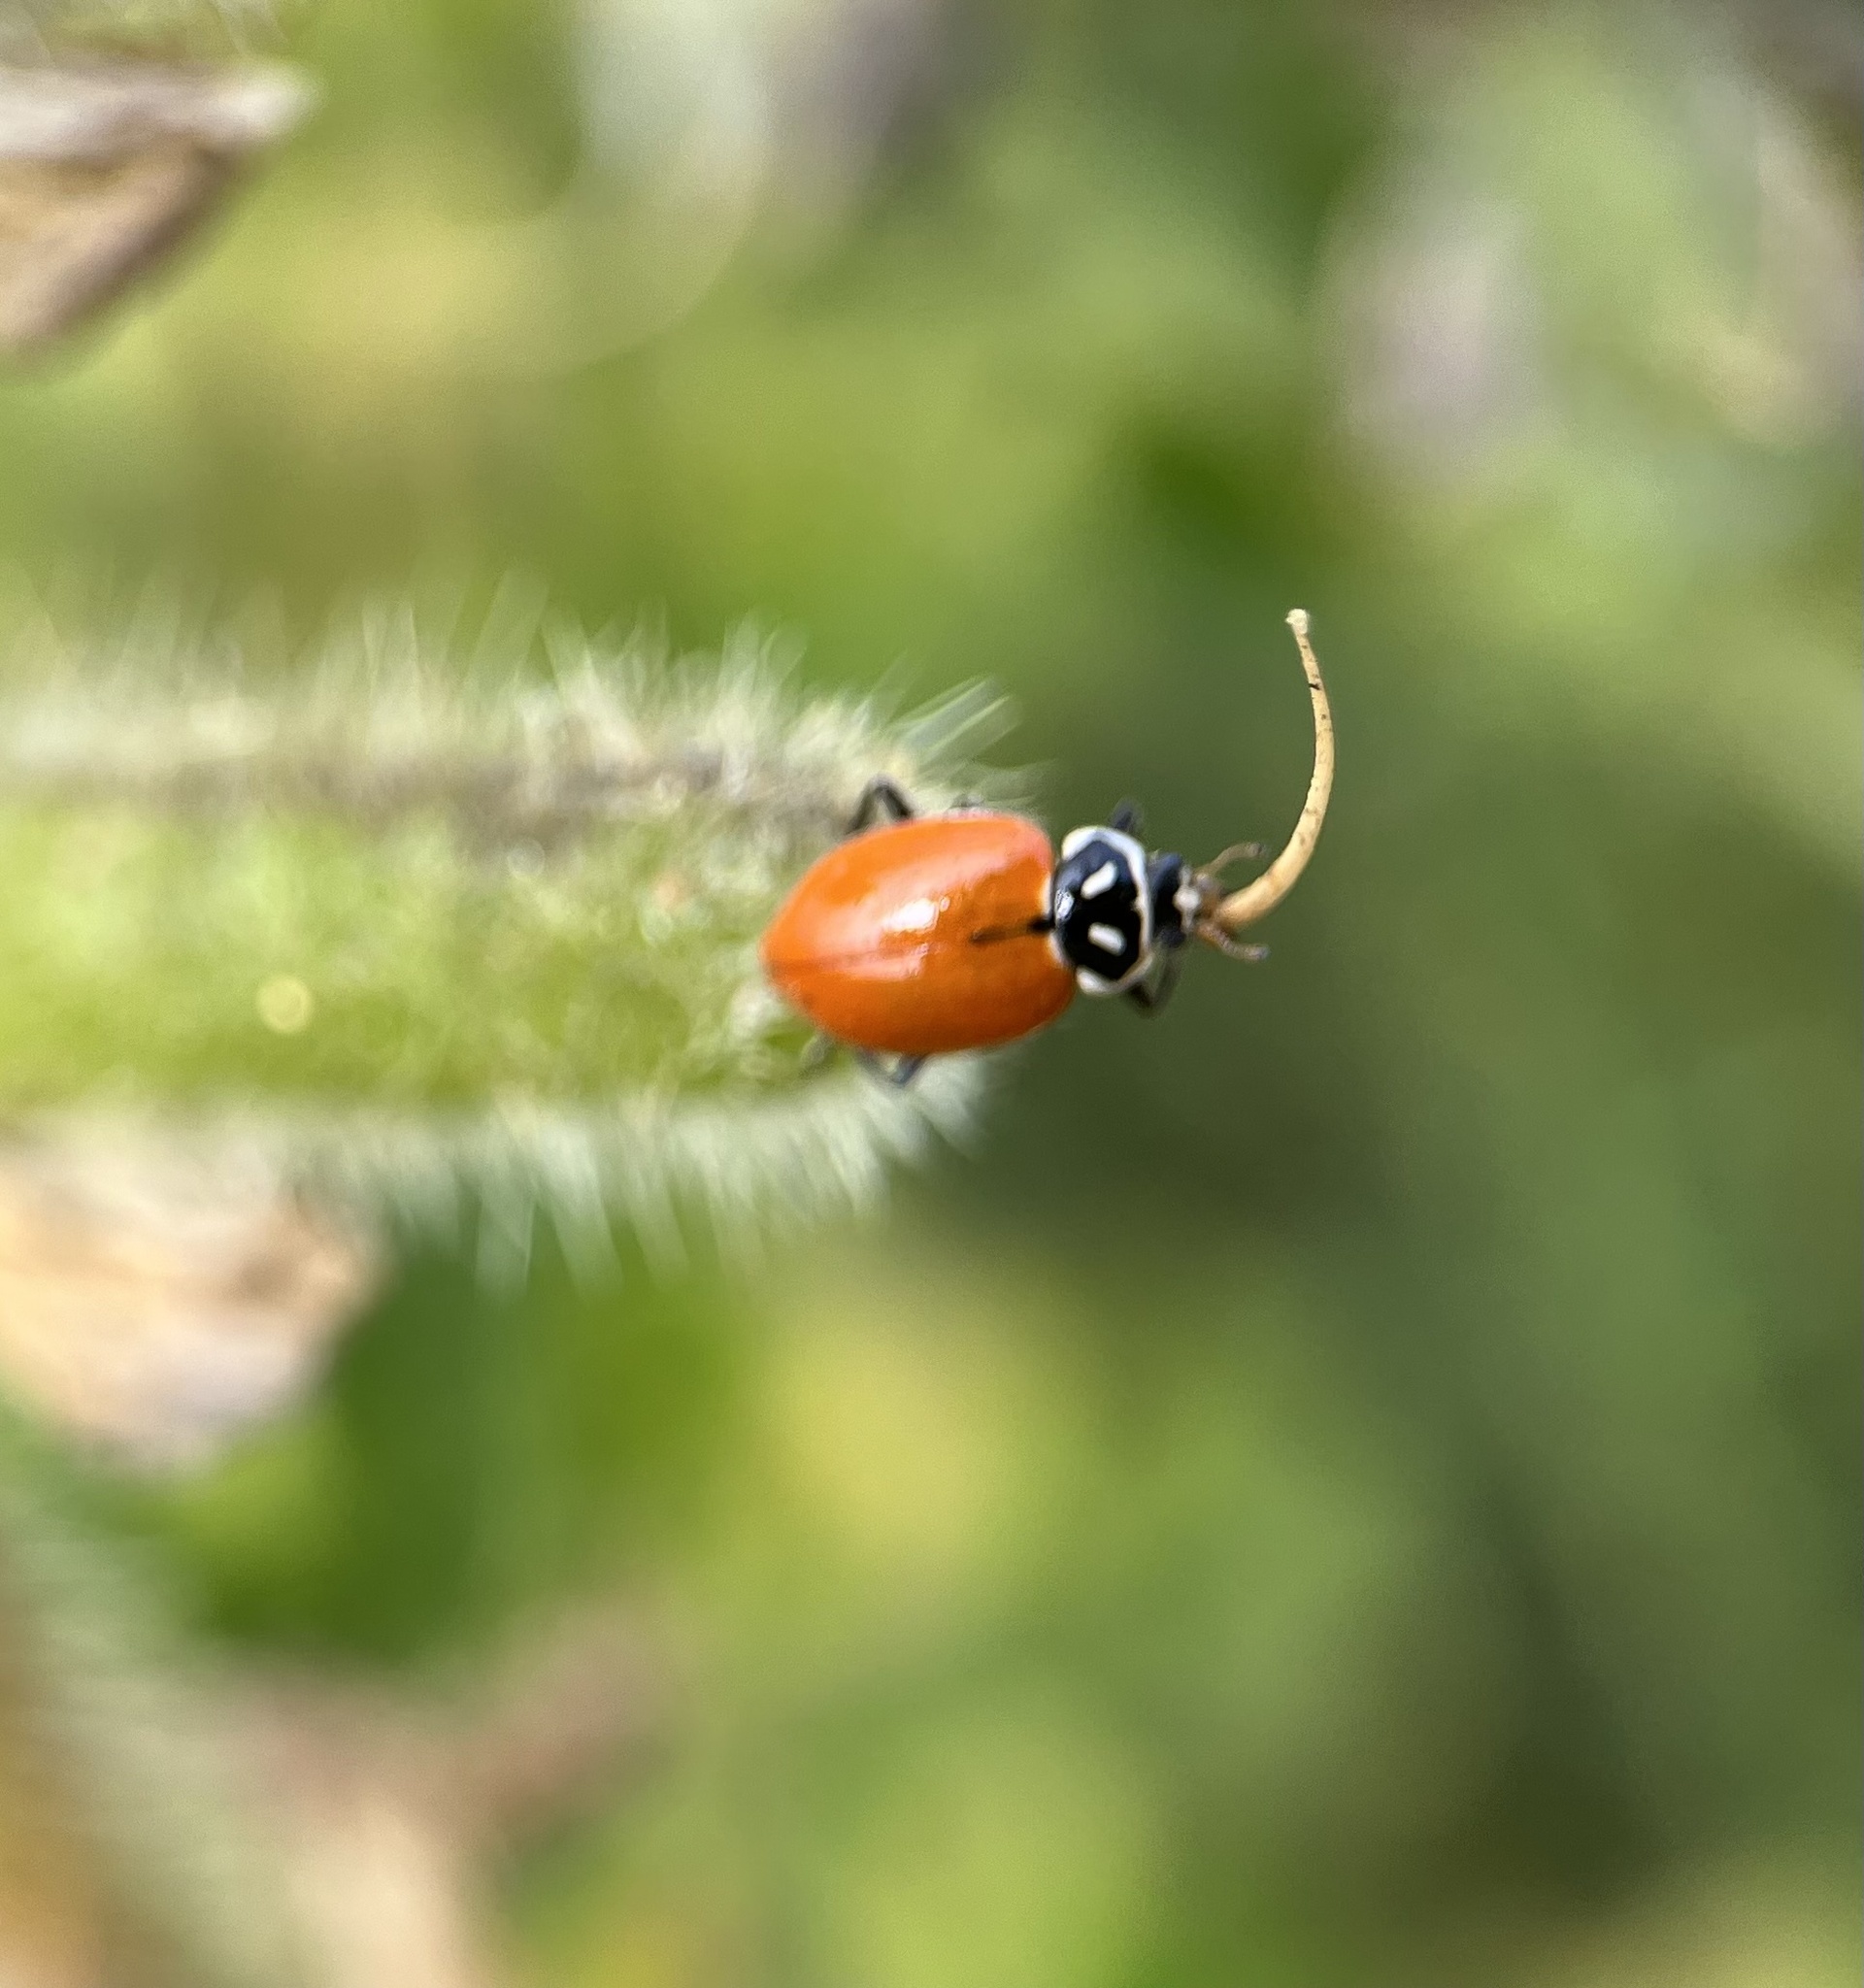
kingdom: Animalia
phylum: Arthropoda
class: Insecta
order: Coleoptera
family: Coccinellidae
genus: Hippodamia
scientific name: Hippodamia convergens
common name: Convergent lady beetle
